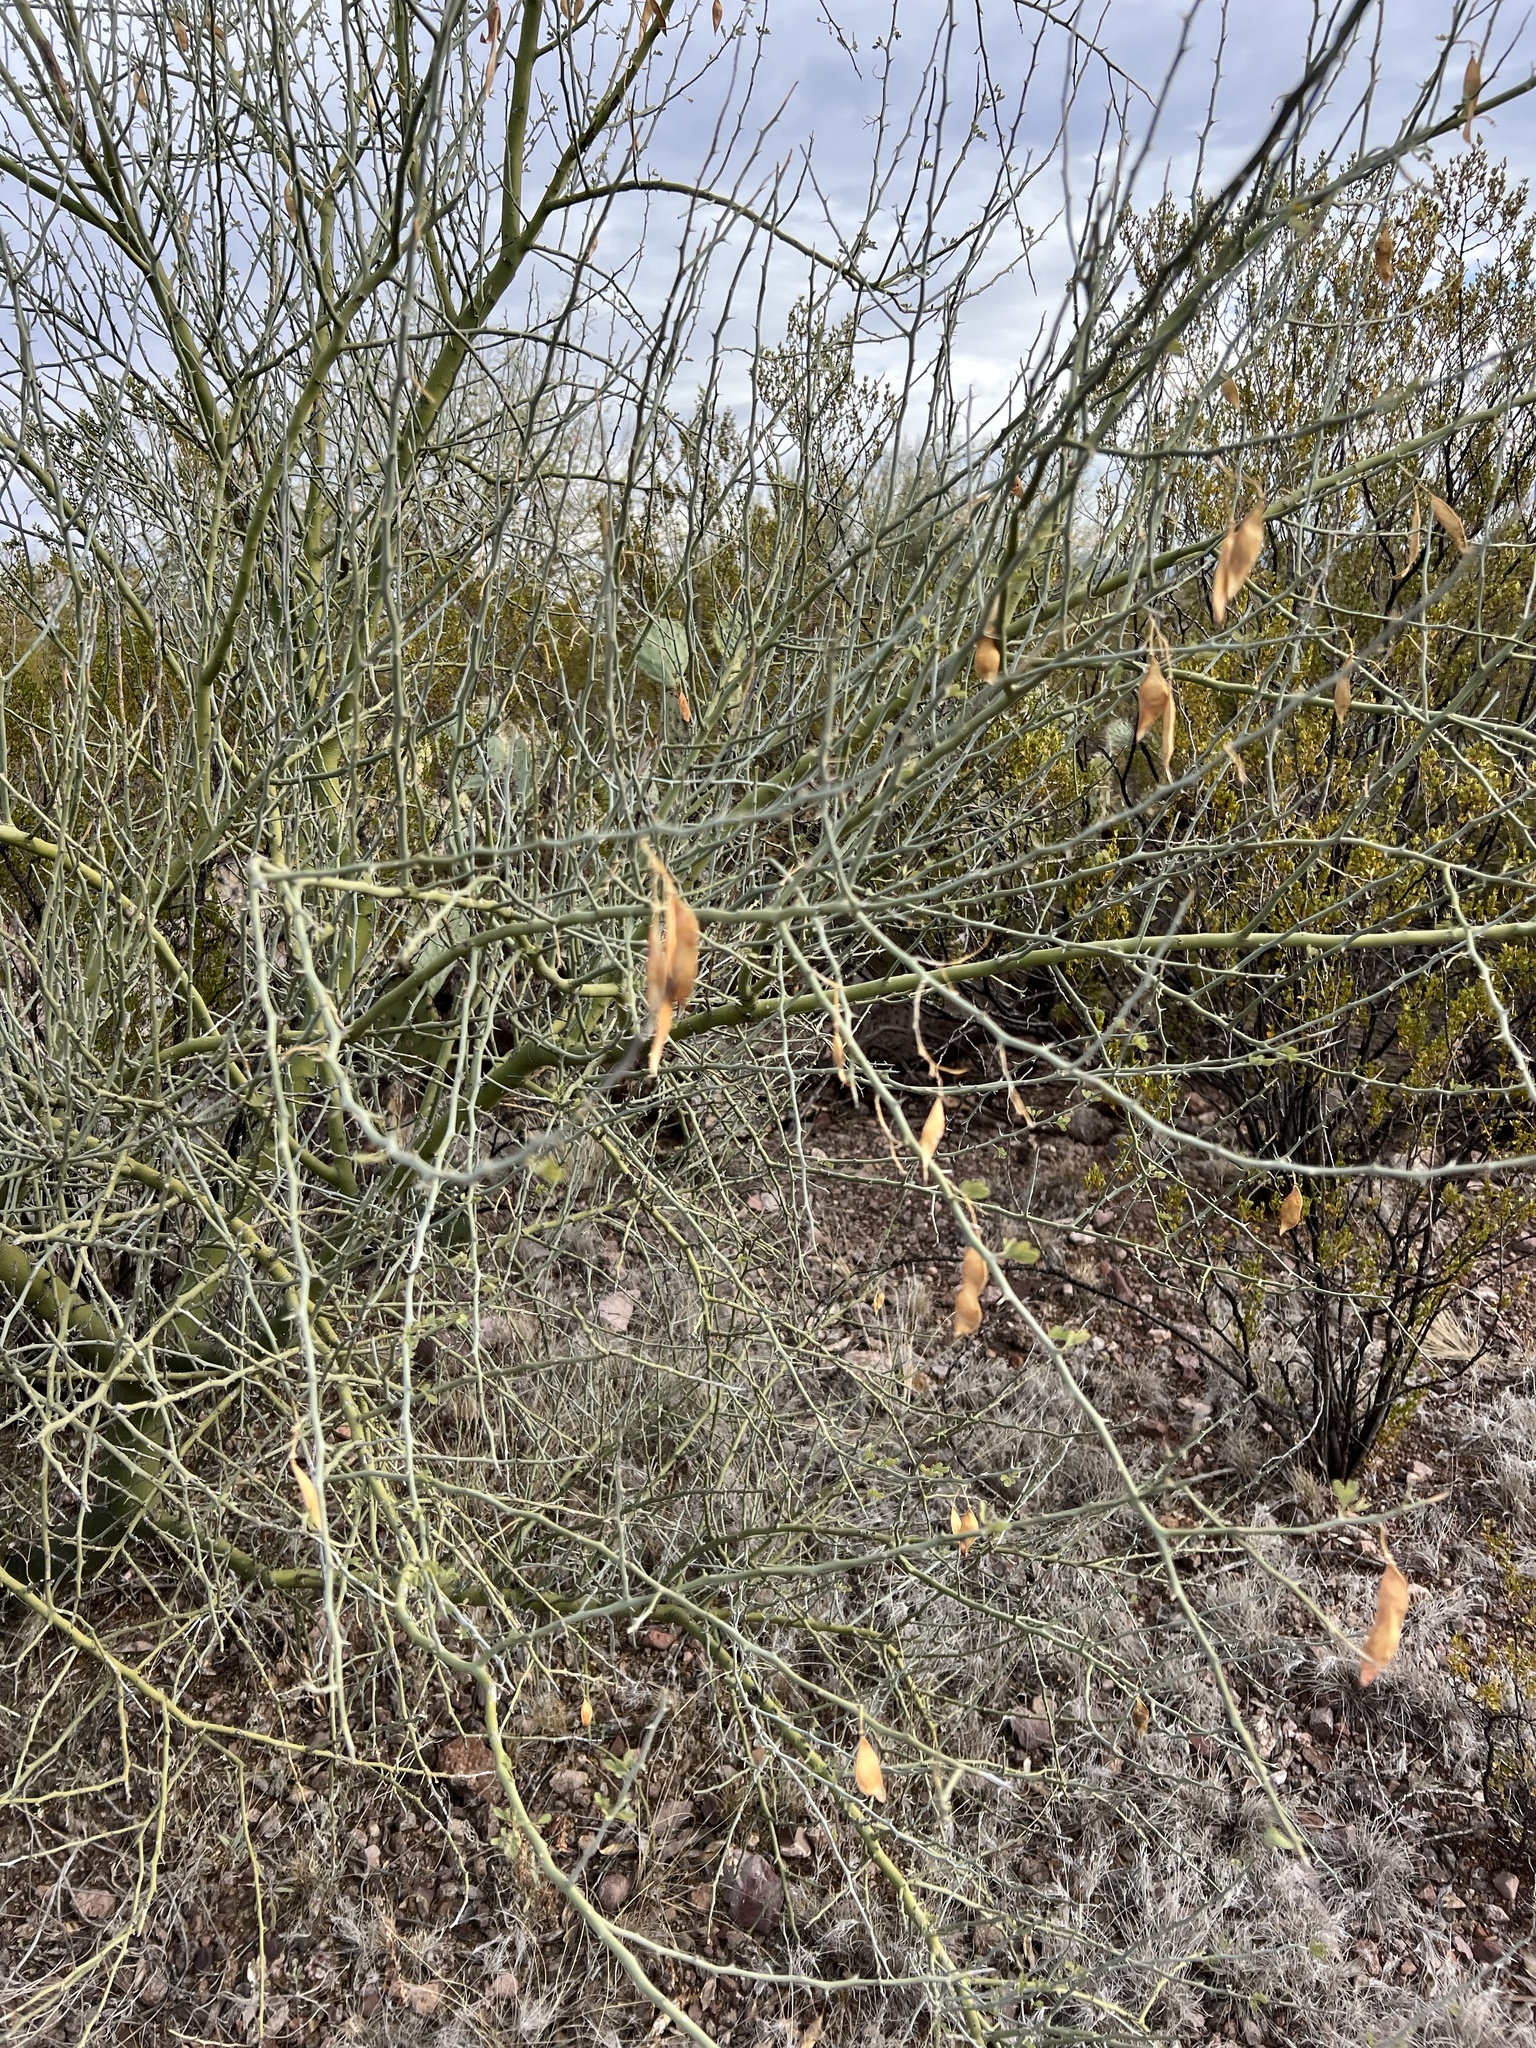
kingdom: Plantae
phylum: Tracheophyta
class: Magnoliopsida
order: Fabales
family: Fabaceae
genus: Parkinsonia
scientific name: Parkinsonia florida
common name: Blue paloverde
